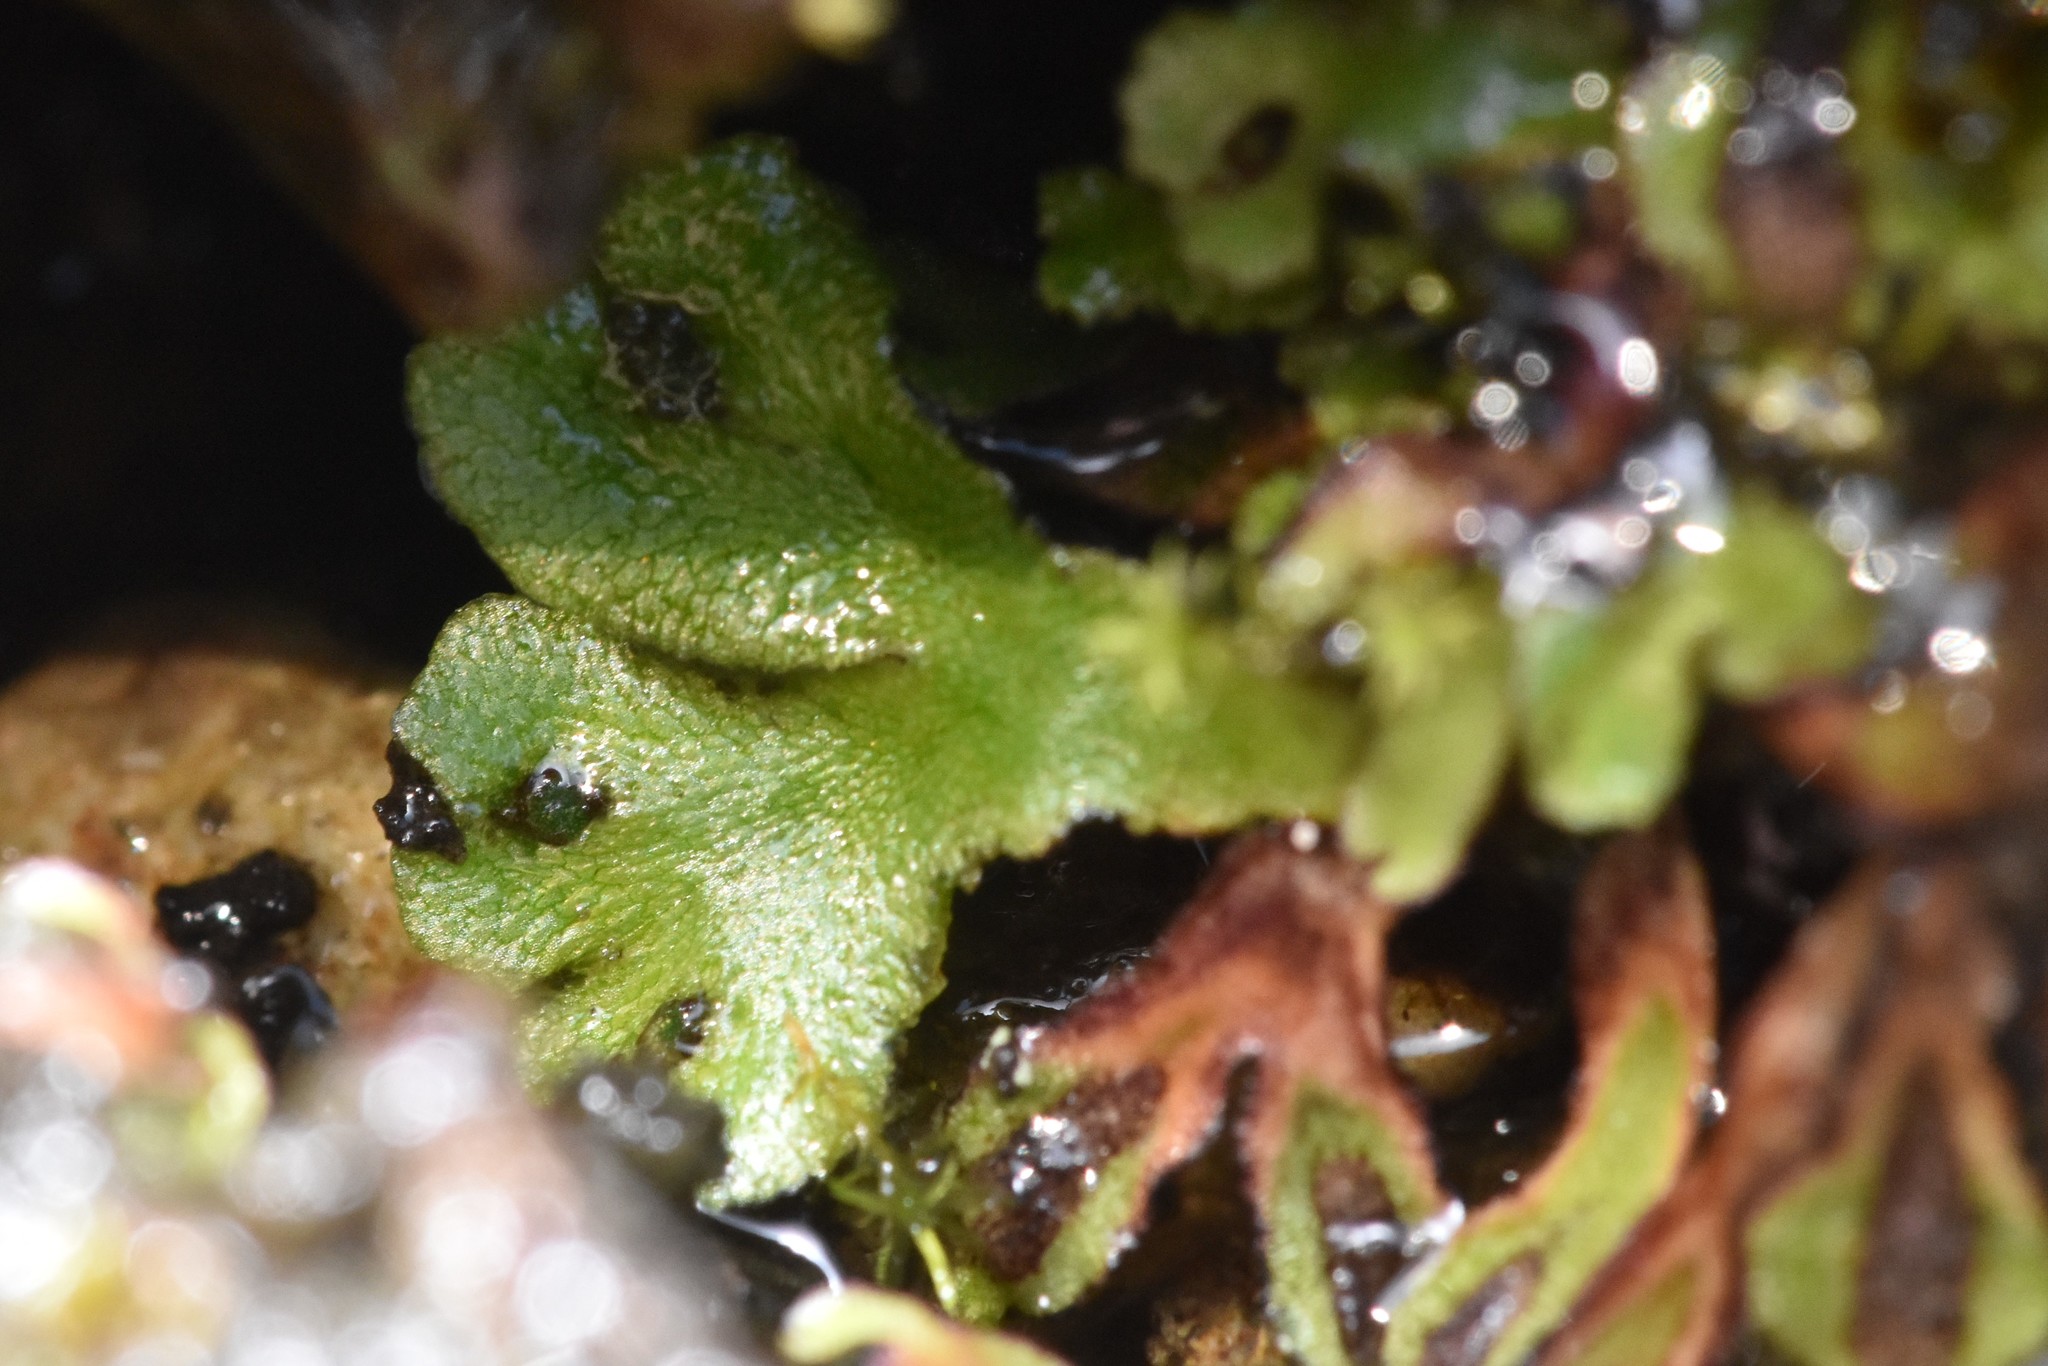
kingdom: Plantae
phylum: Marchantiophyta
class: Marchantiopsida
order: Marchantiales
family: Aytoniaceae
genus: Mannia
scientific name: Mannia gracilis
